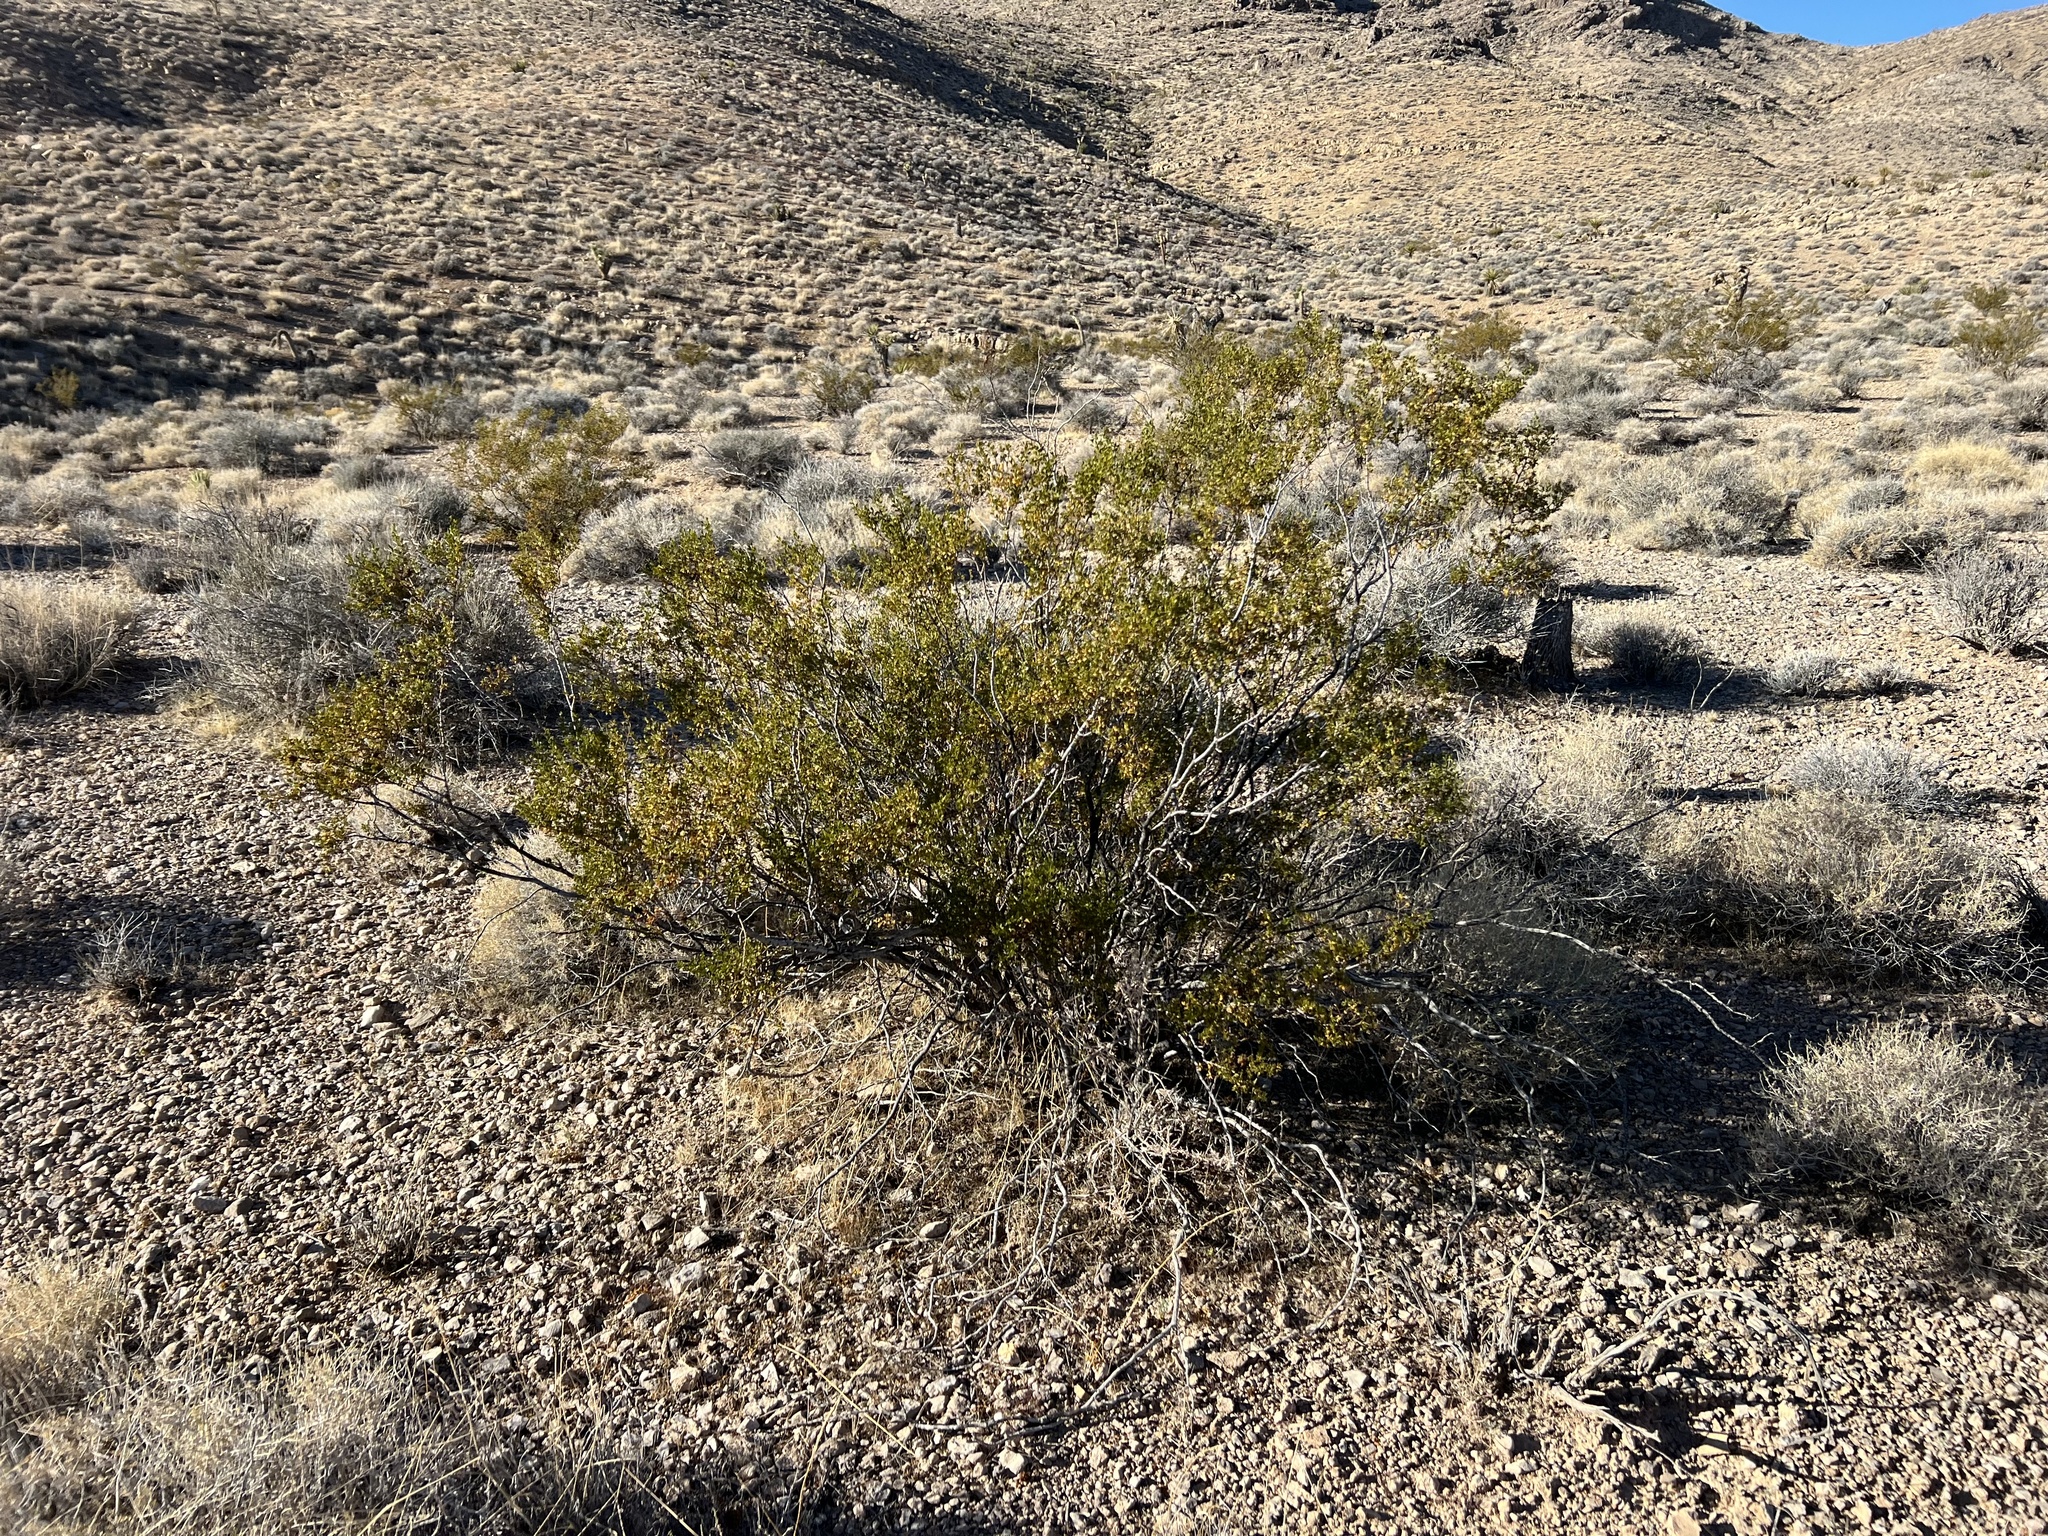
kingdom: Plantae
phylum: Tracheophyta
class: Magnoliopsida
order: Zygophyllales
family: Zygophyllaceae
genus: Larrea
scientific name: Larrea tridentata
